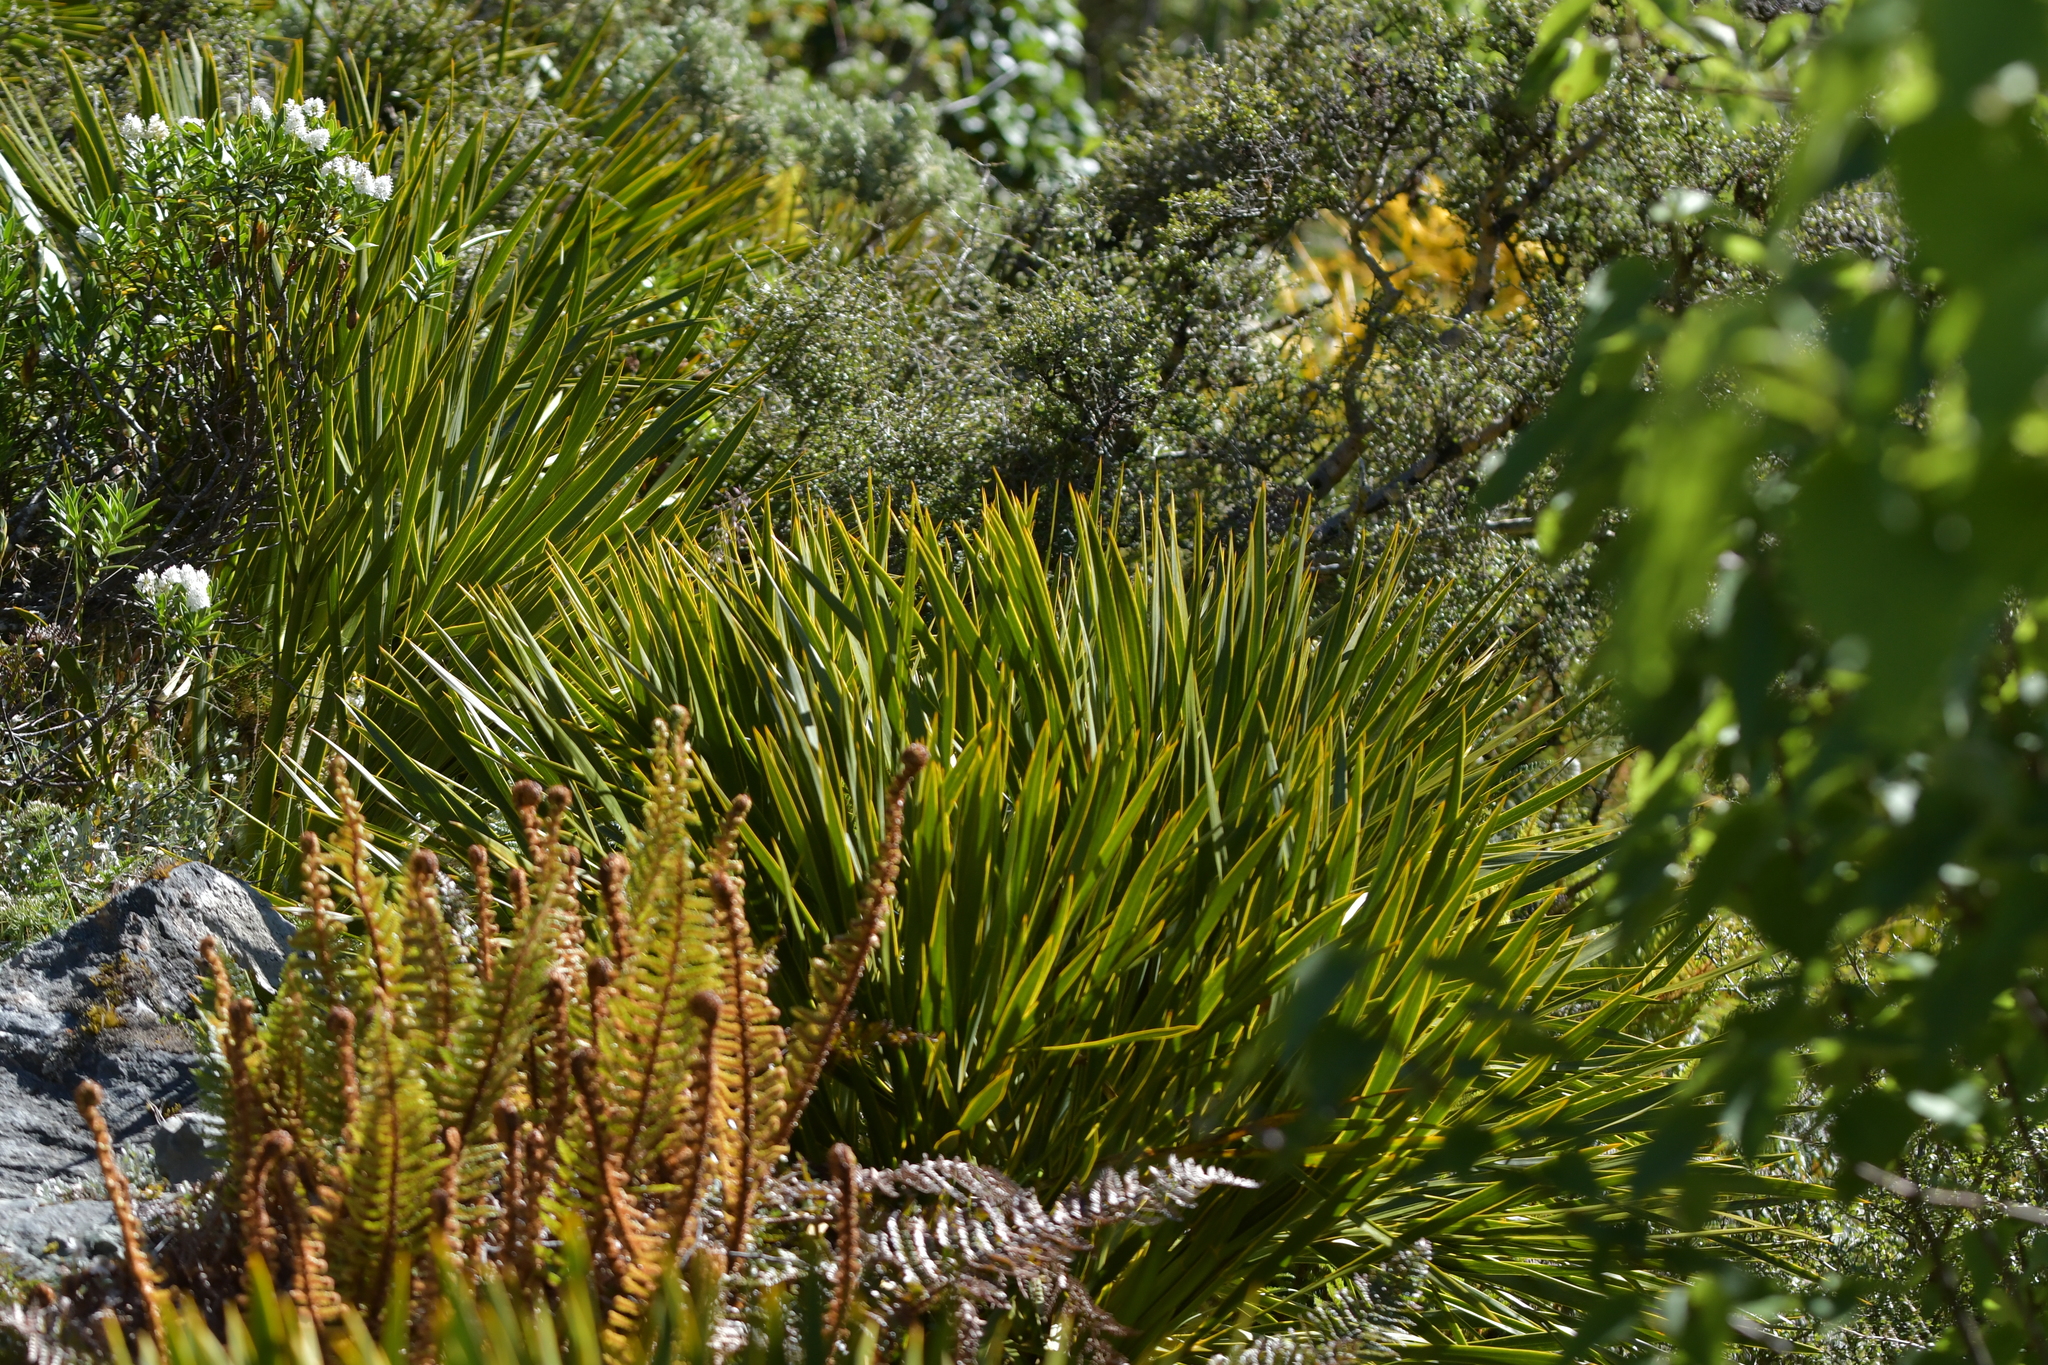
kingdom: Plantae
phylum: Tracheophyta
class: Magnoliopsida
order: Apiales
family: Apiaceae
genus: Aciphylla
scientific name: Aciphylla horrida
